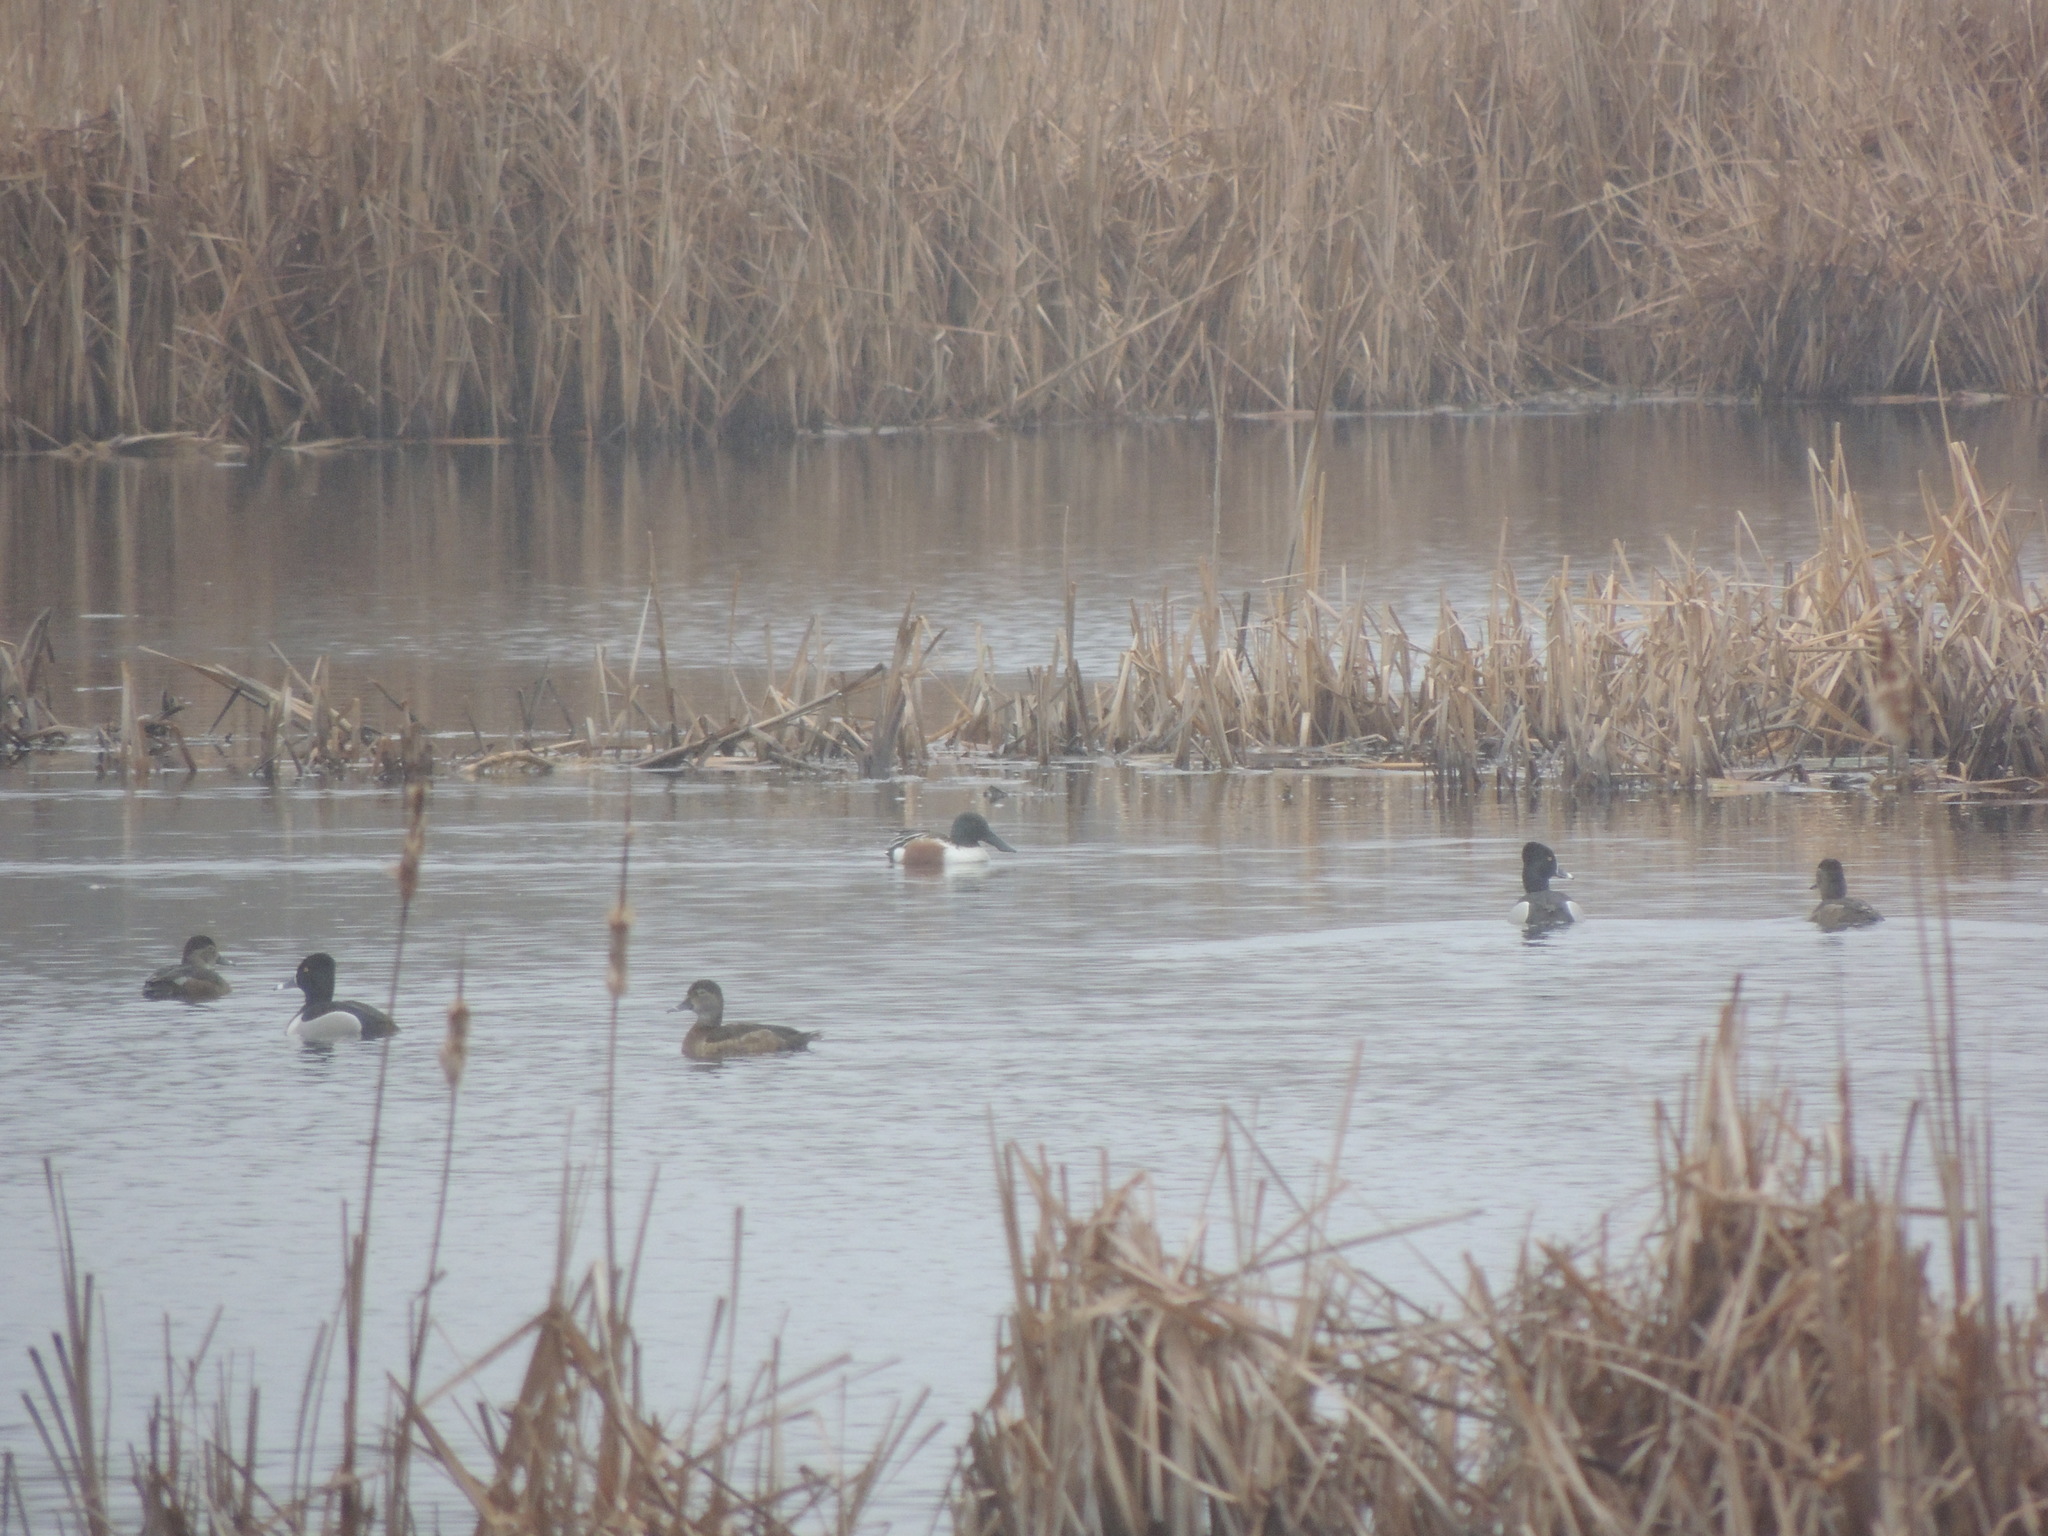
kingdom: Animalia
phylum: Chordata
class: Aves
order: Anseriformes
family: Anatidae
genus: Spatula
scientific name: Spatula clypeata
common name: Northern shoveler
